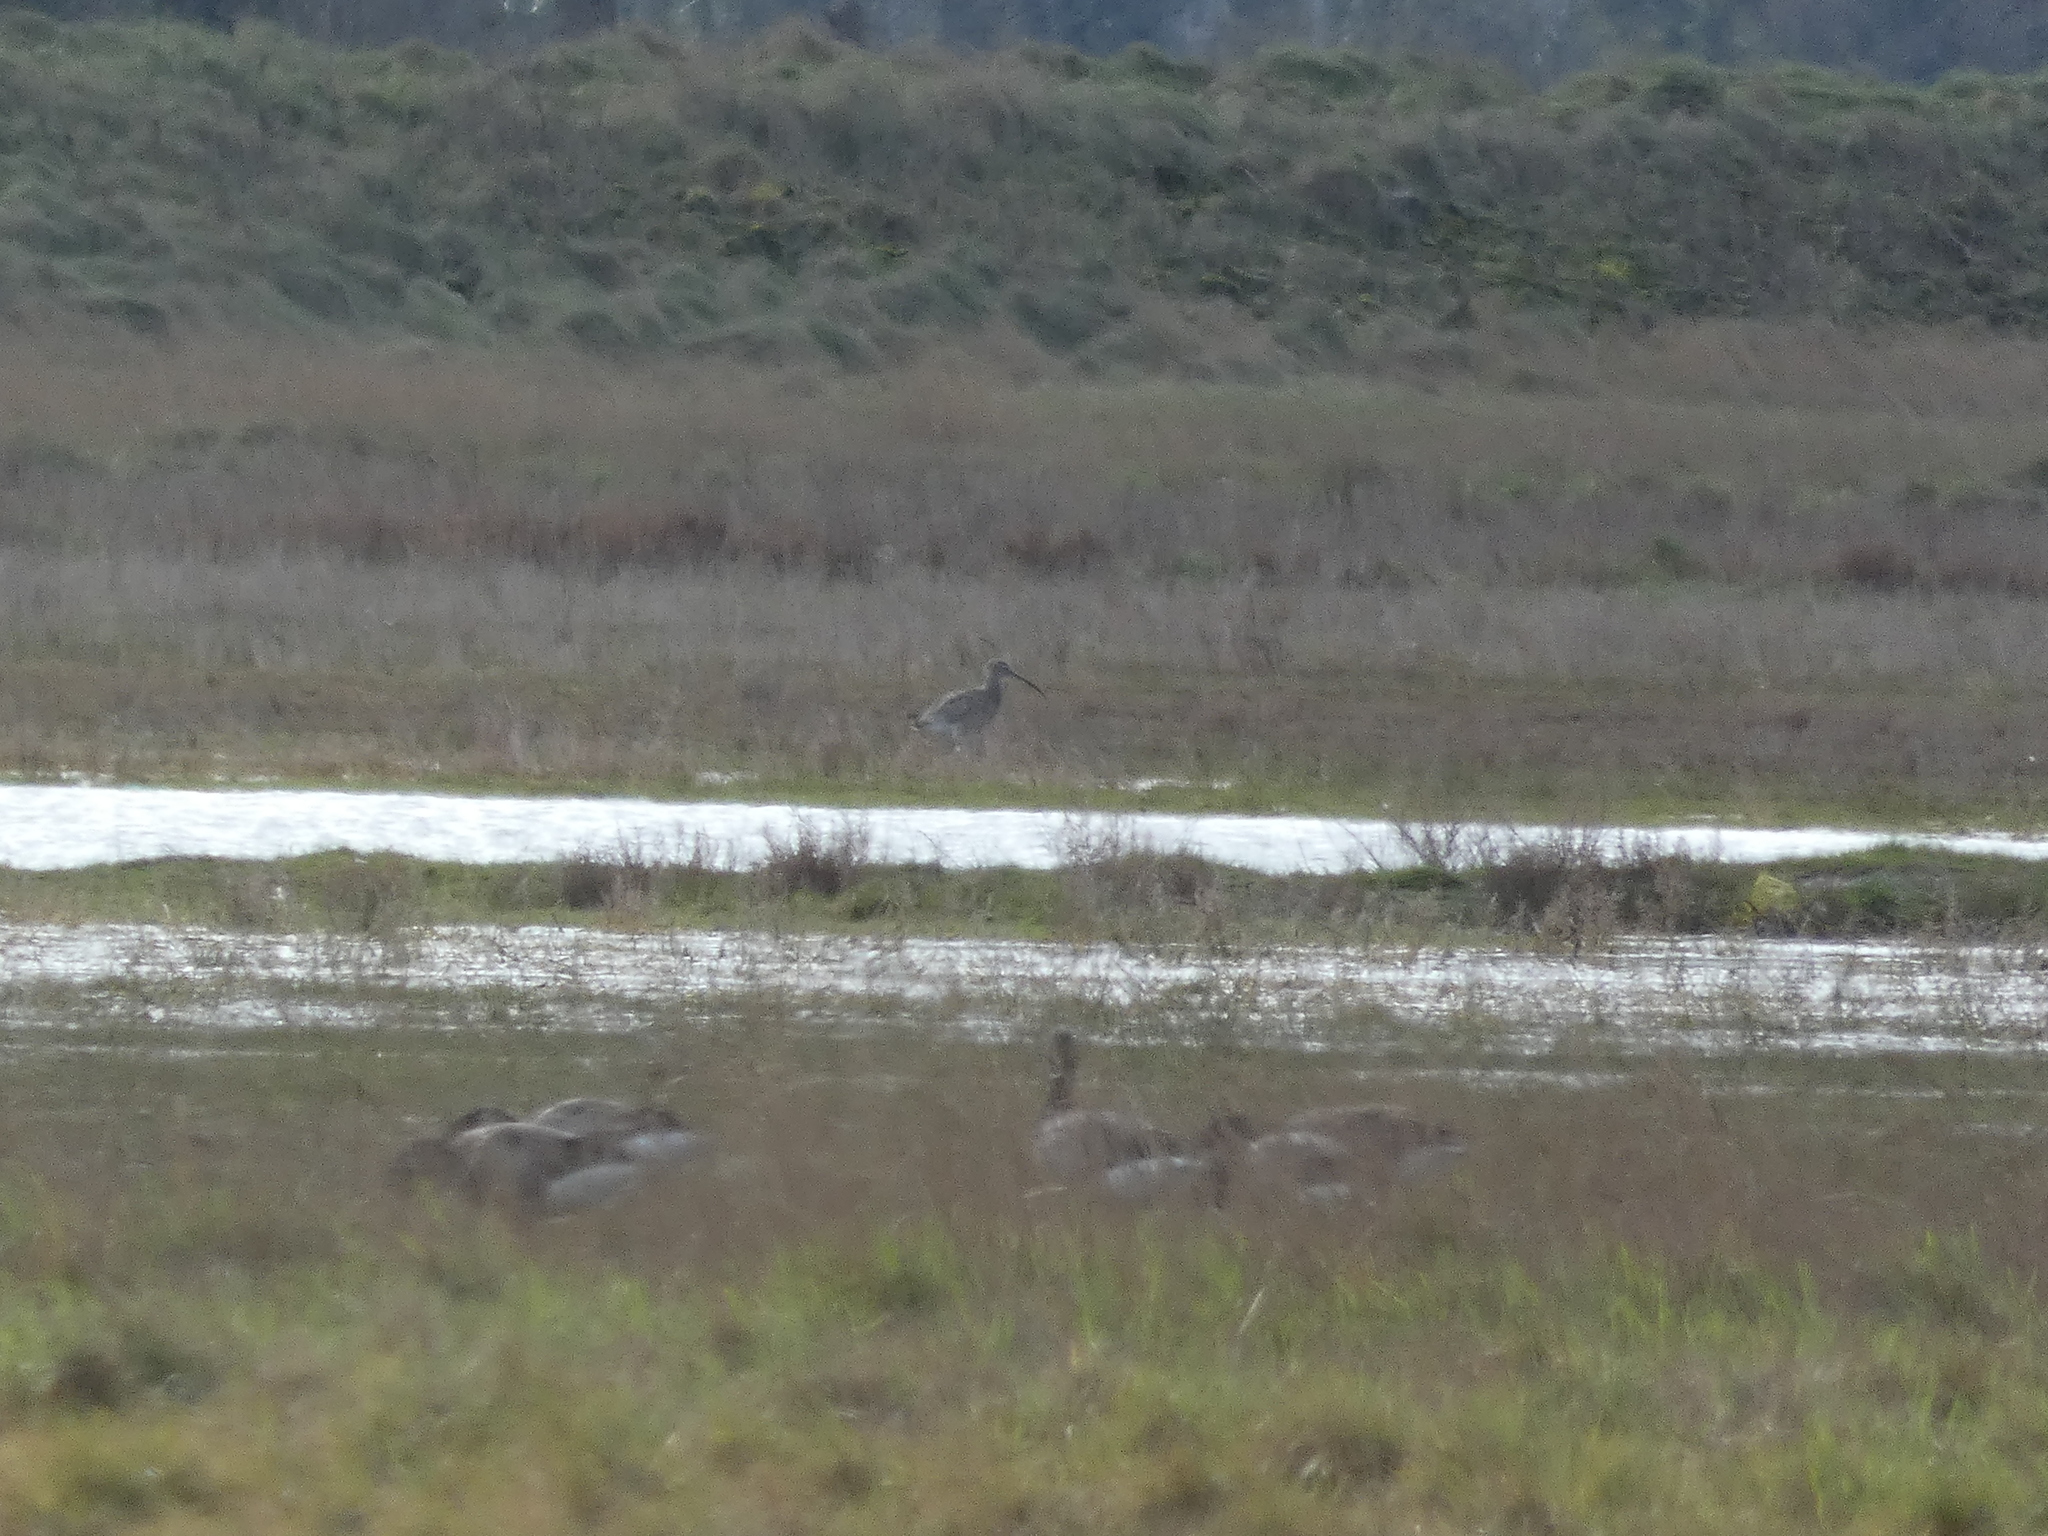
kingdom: Animalia
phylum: Chordata
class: Aves
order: Charadriiformes
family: Scolopacidae
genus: Numenius
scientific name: Numenius arquata
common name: Eurasian curlew
